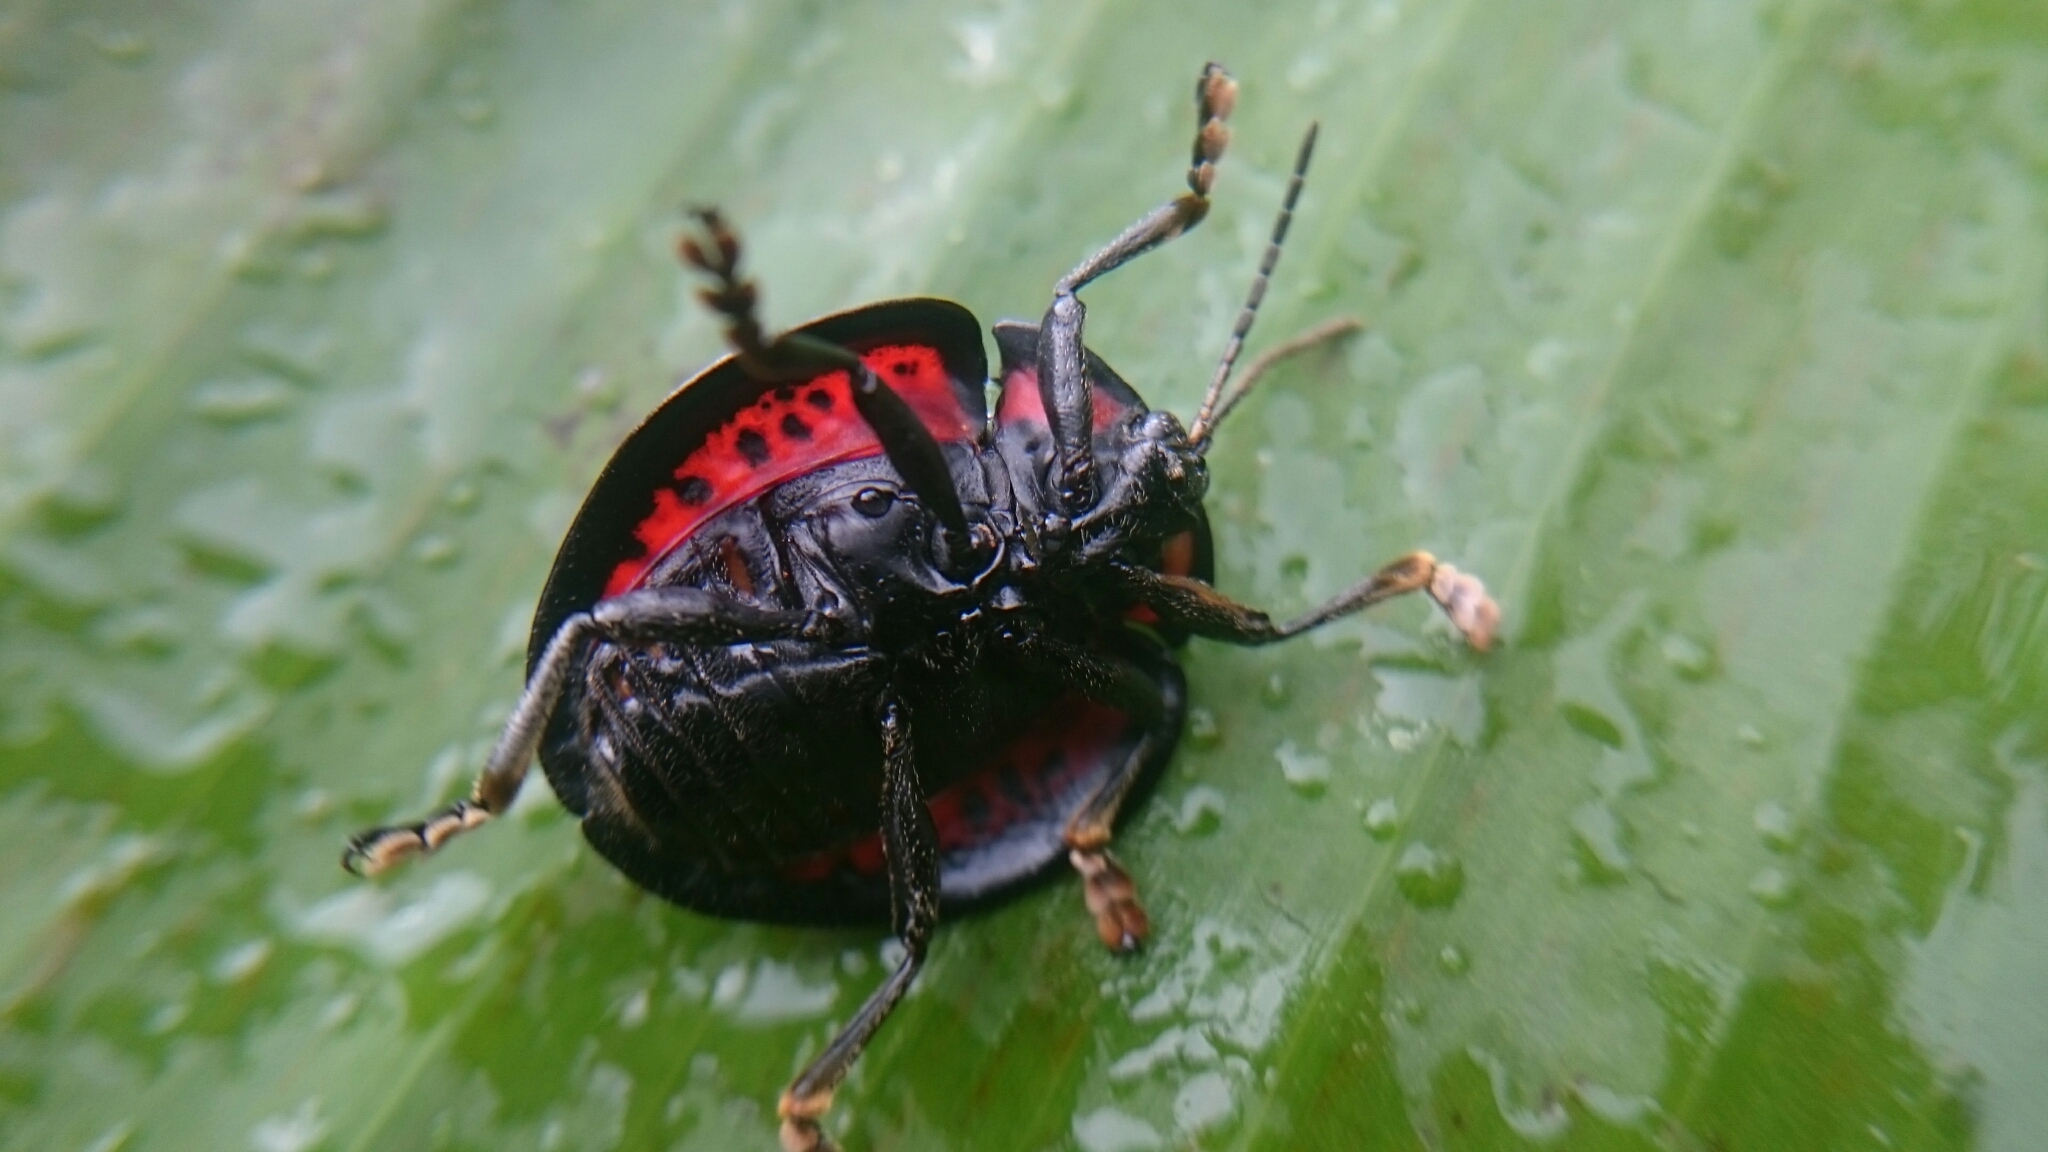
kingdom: Animalia
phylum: Arthropoda
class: Insecta
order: Coleoptera
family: Chrysomelidae
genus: Canistra
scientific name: Canistra osculatii
